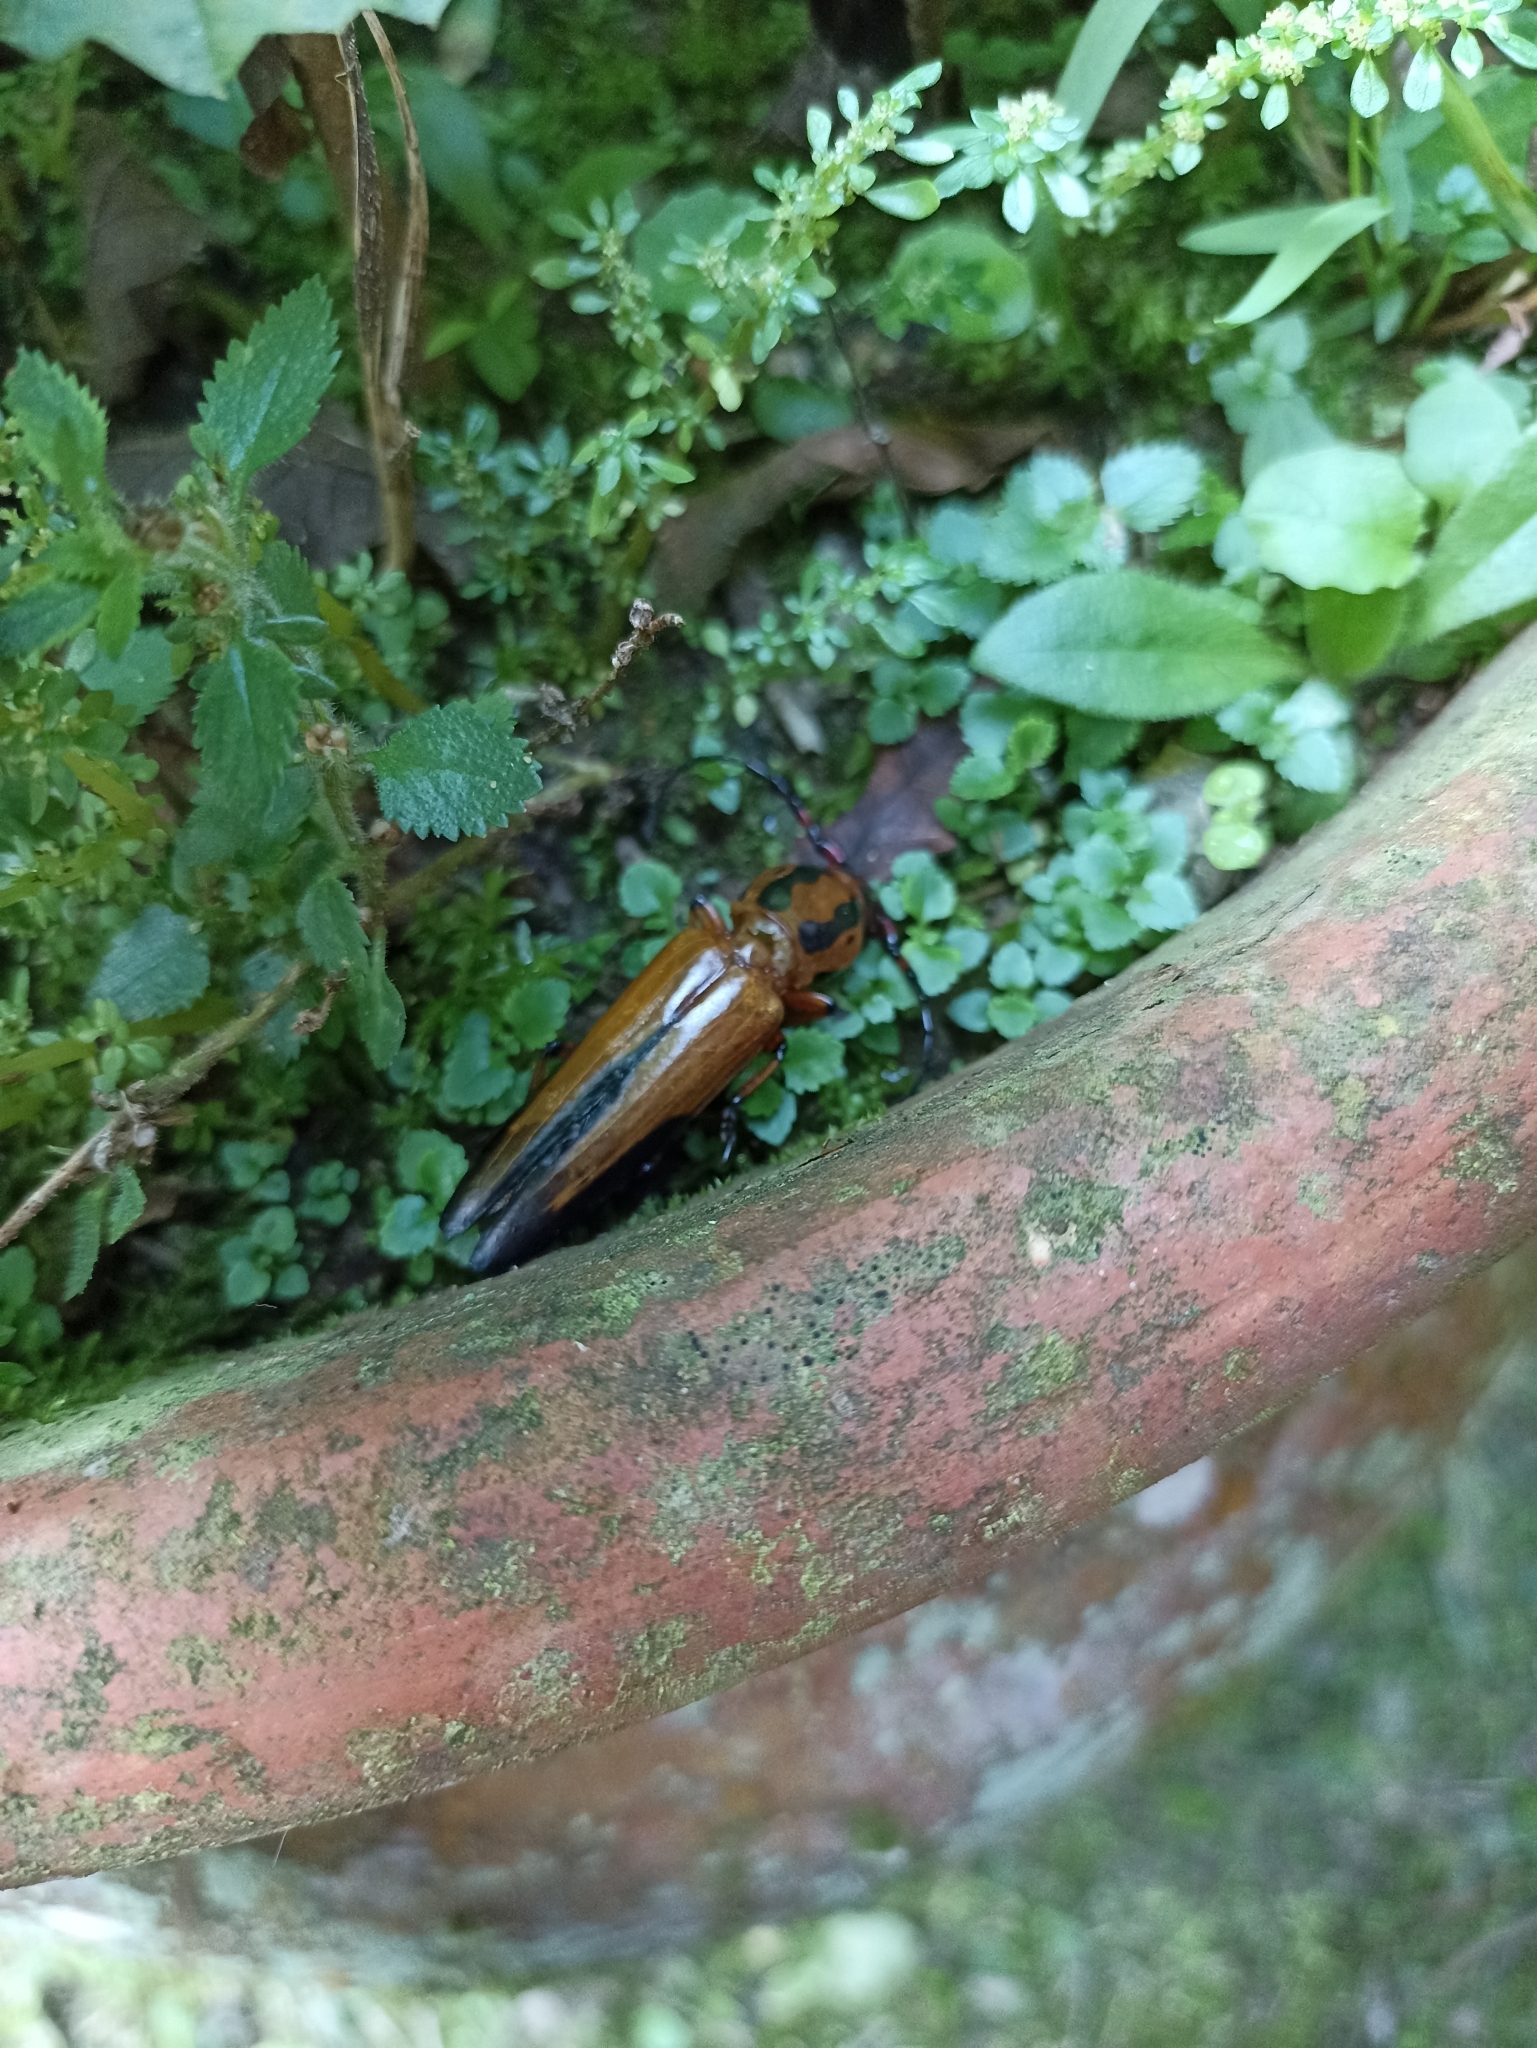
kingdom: Animalia
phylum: Arthropoda
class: Insecta
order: Coleoptera
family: Cerambycidae
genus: Metopocoilus
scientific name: Metopocoilus picticornis
